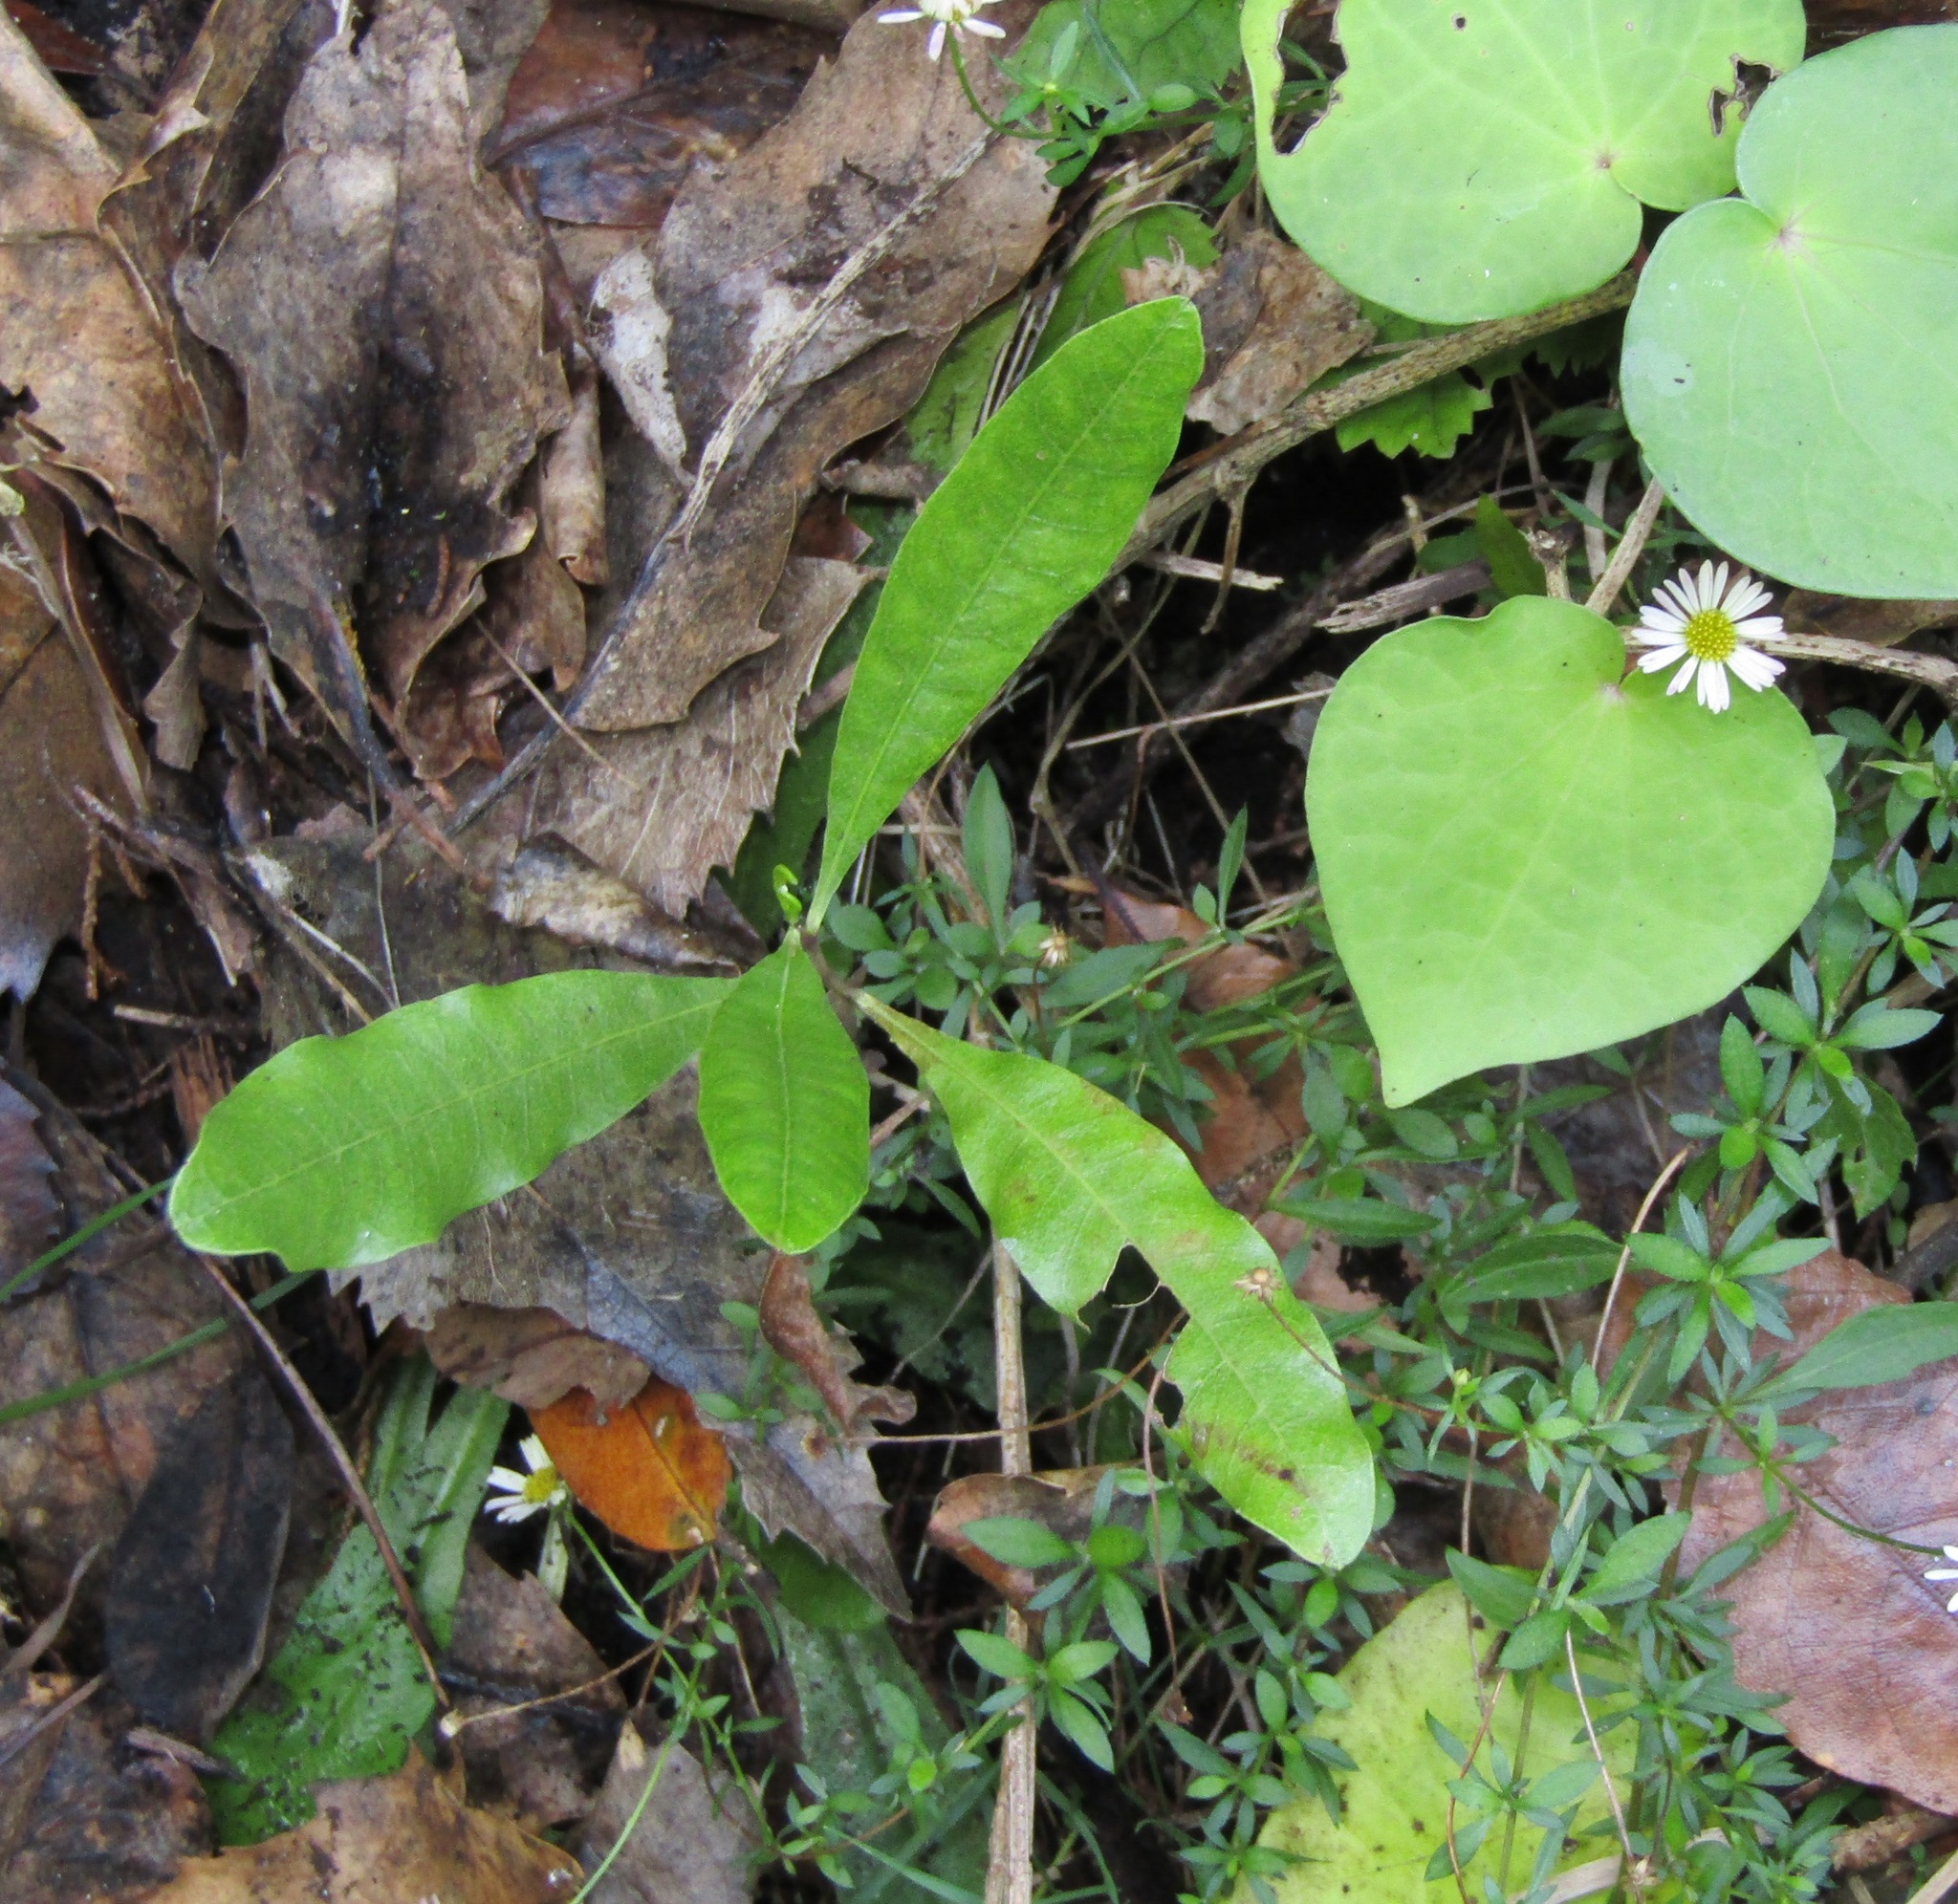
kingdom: Plantae
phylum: Tracheophyta
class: Magnoliopsida
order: Sapindales
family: Sapindaceae
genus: Dodonaea
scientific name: Dodonaea viscosa
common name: Hopbush
